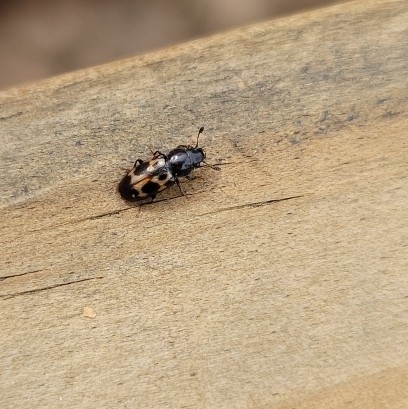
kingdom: Animalia
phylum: Arthropoda
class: Insecta
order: Coleoptera
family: Nitidulidae
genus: Glischrochilus
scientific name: Glischrochilus confluentus
